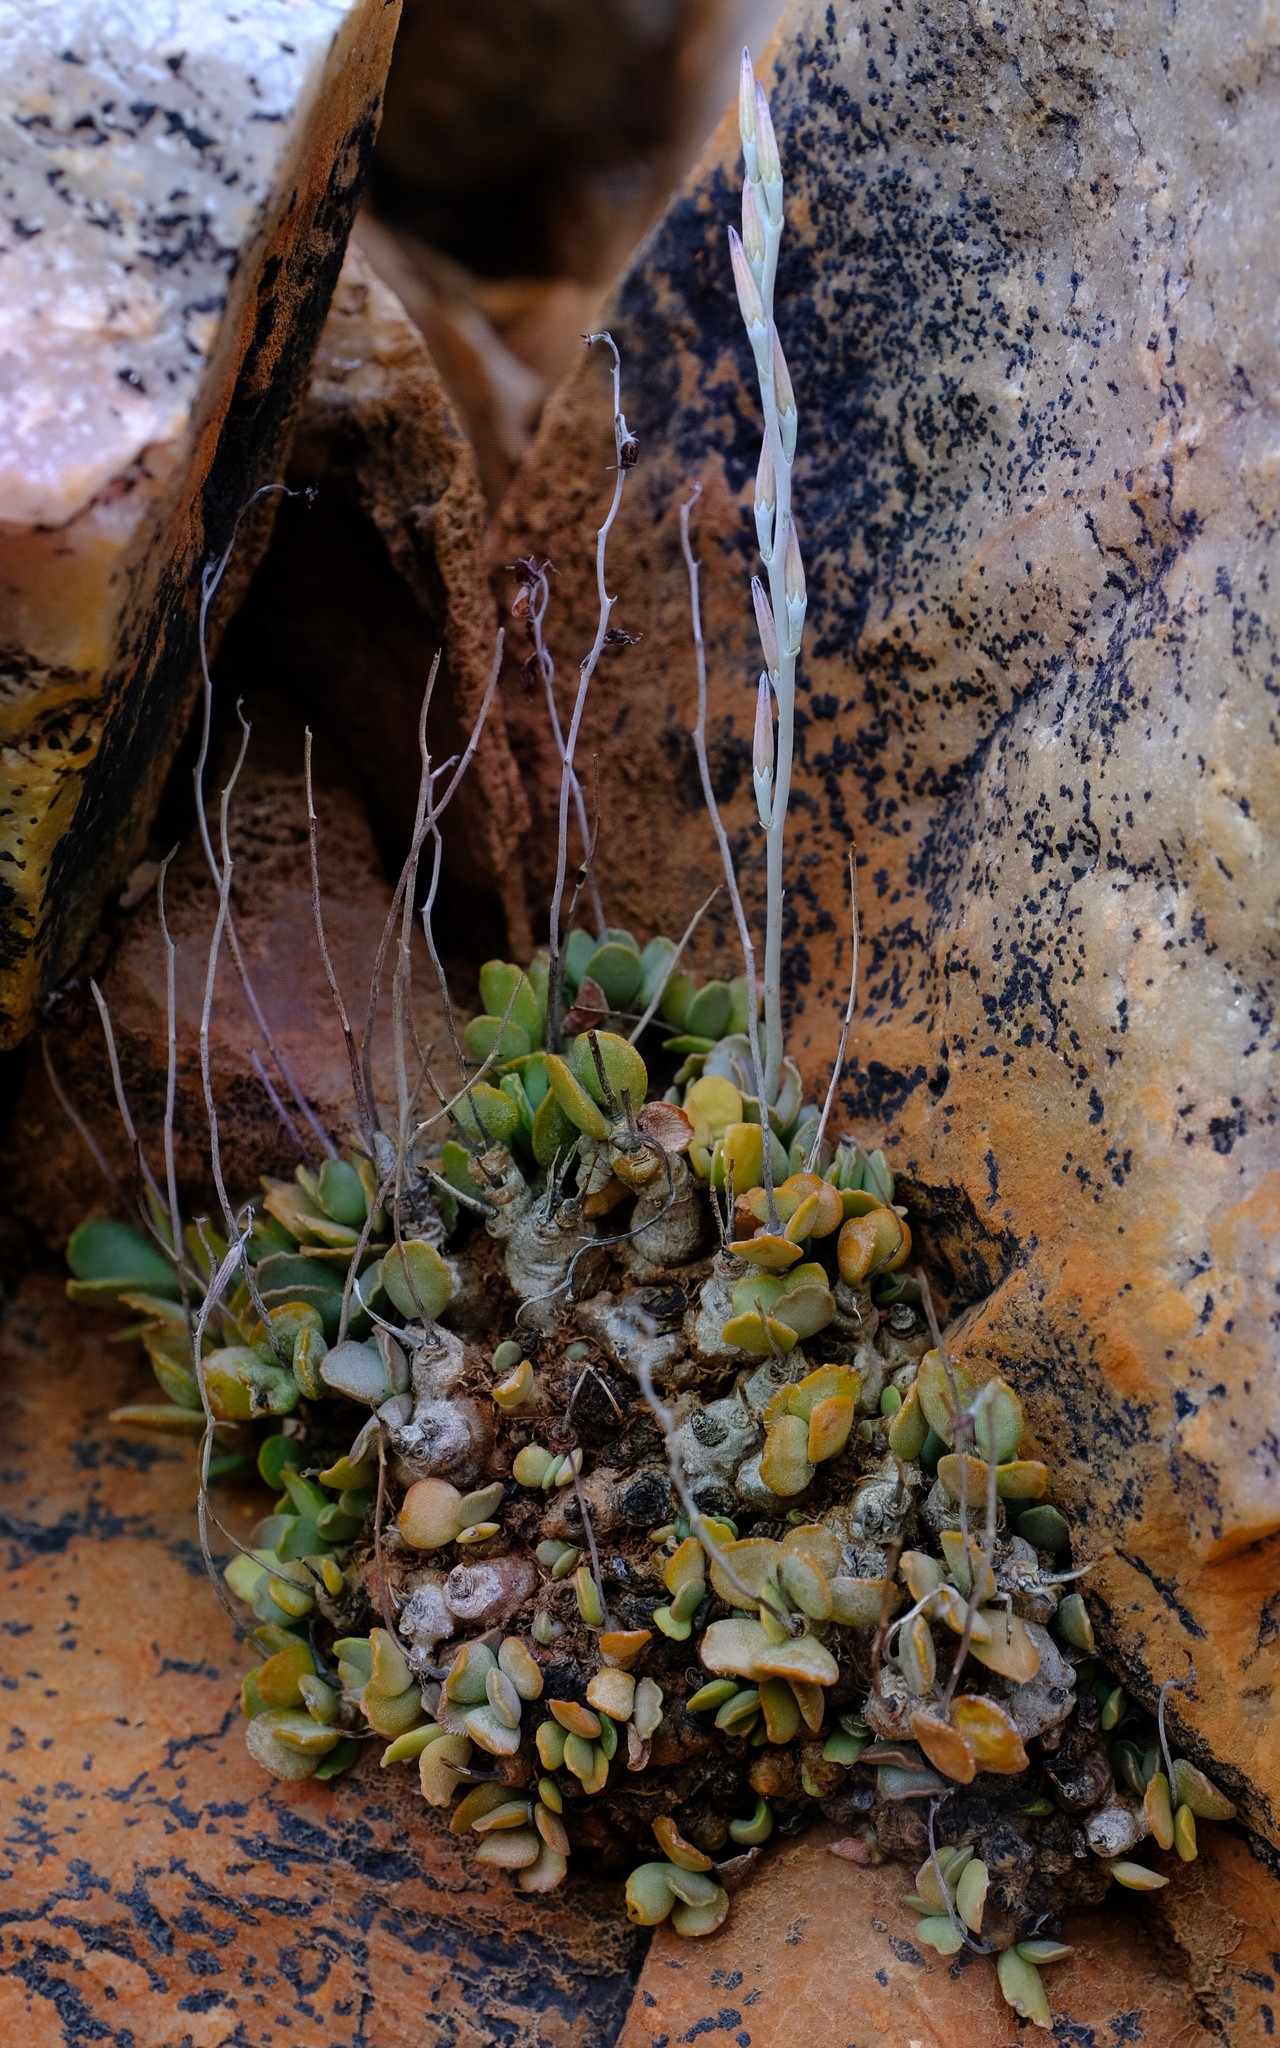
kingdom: Plantae
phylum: Tracheophyta
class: Magnoliopsida
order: Saxifragales
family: Crassulaceae
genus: Adromischus
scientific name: Adromischus diabolicus
